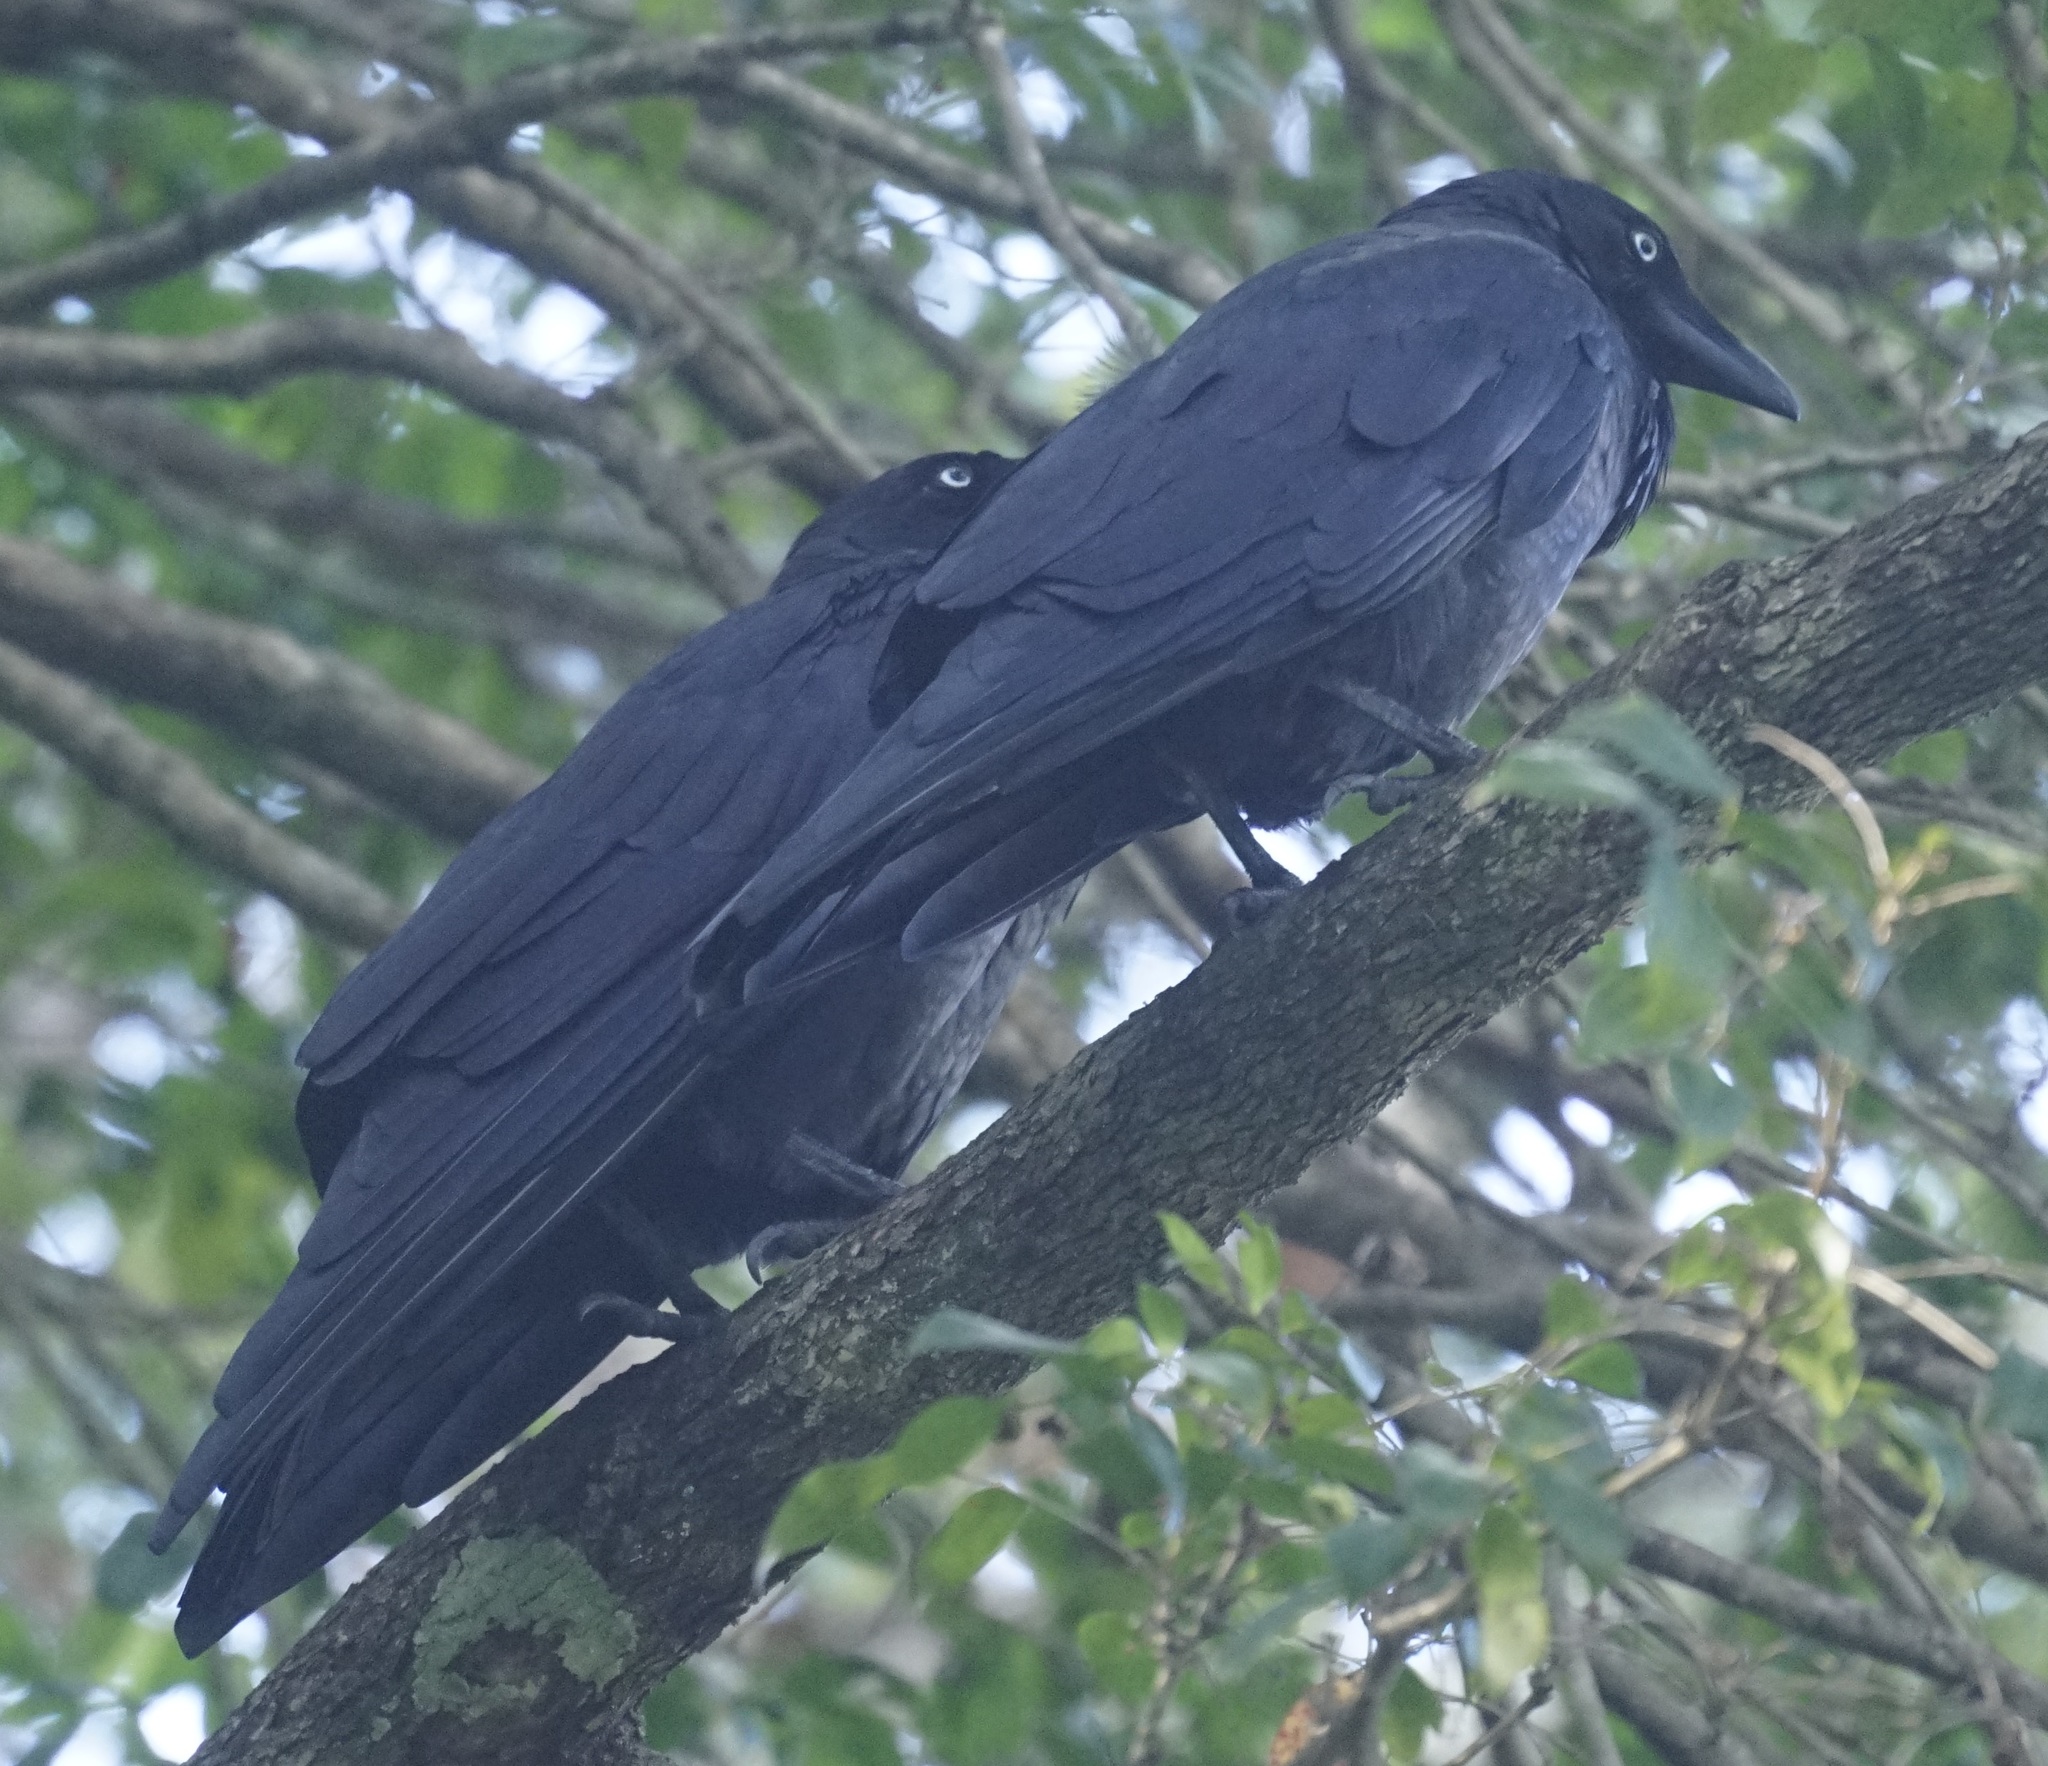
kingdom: Animalia
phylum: Chordata
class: Aves
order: Passeriformes
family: Corvidae
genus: Corvus
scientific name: Corvus coronoides
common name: Australian raven
